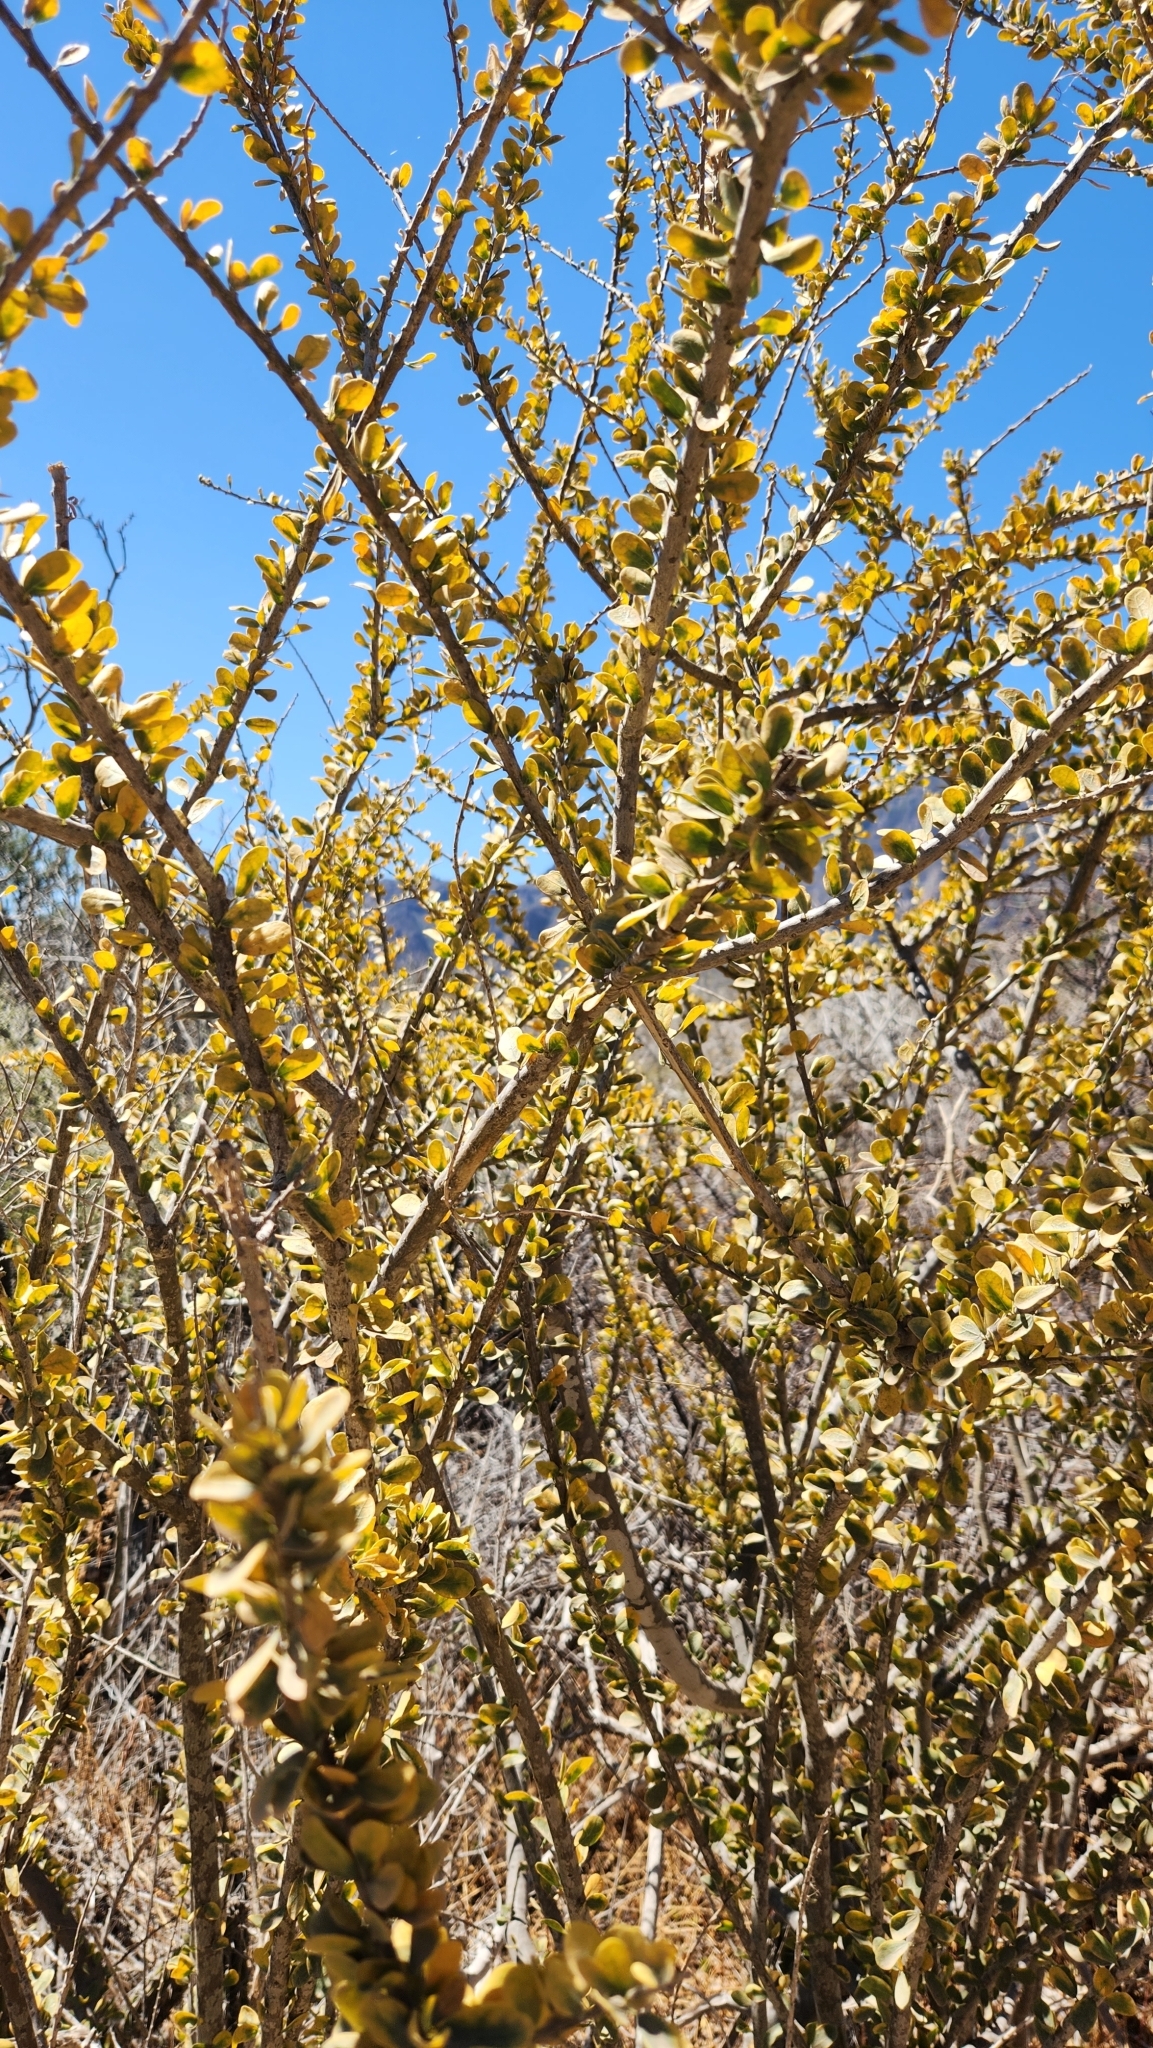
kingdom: Plantae
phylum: Tracheophyta
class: Magnoliopsida
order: Malpighiales
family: Euphorbiaceae
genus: Adelia
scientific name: Adelia brandegeei
